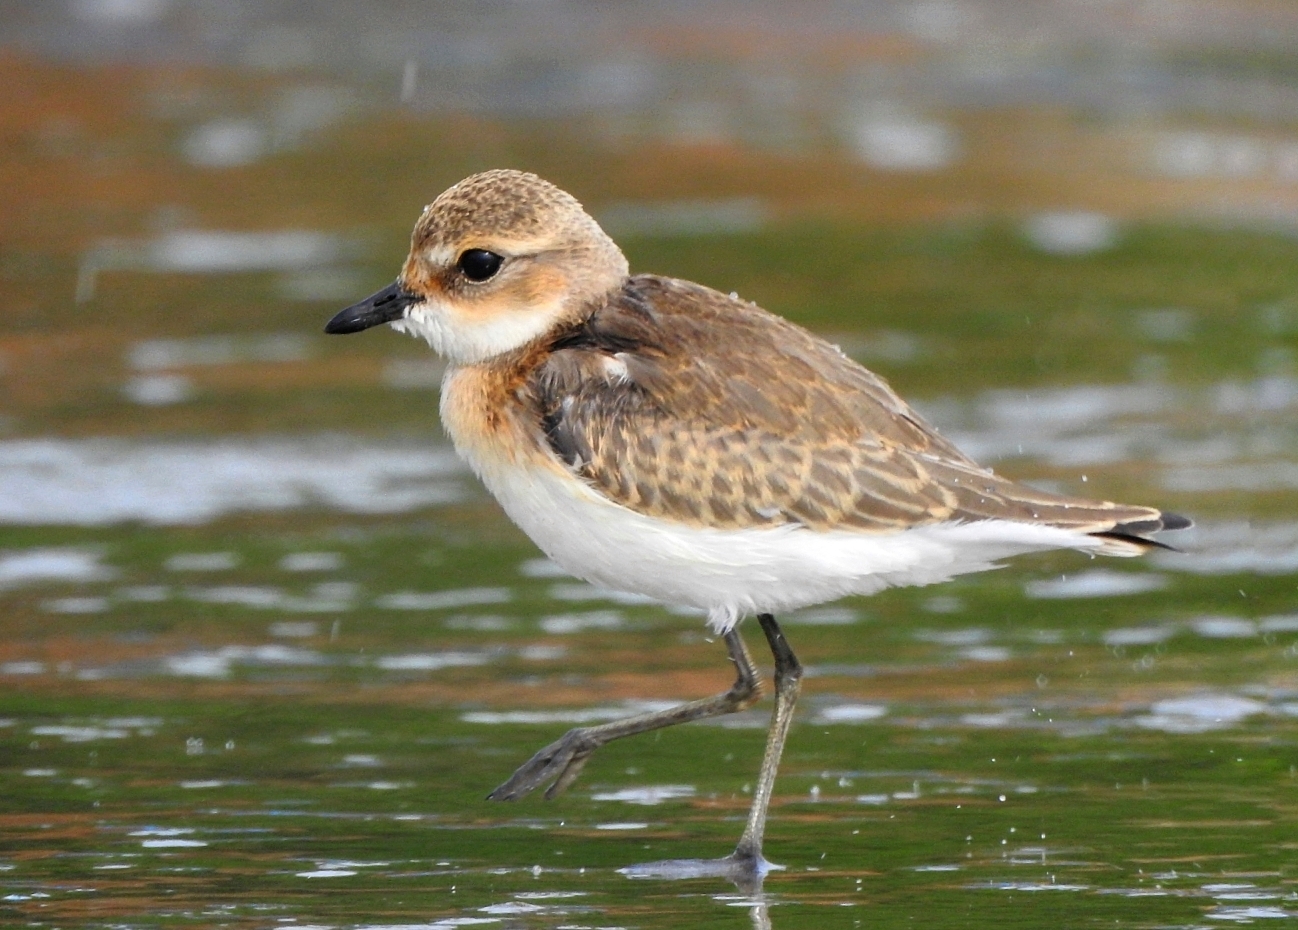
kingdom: Animalia
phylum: Chordata
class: Aves
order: Charadriiformes
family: Charadriidae
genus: Anarhynchus
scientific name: Anarhynchus
